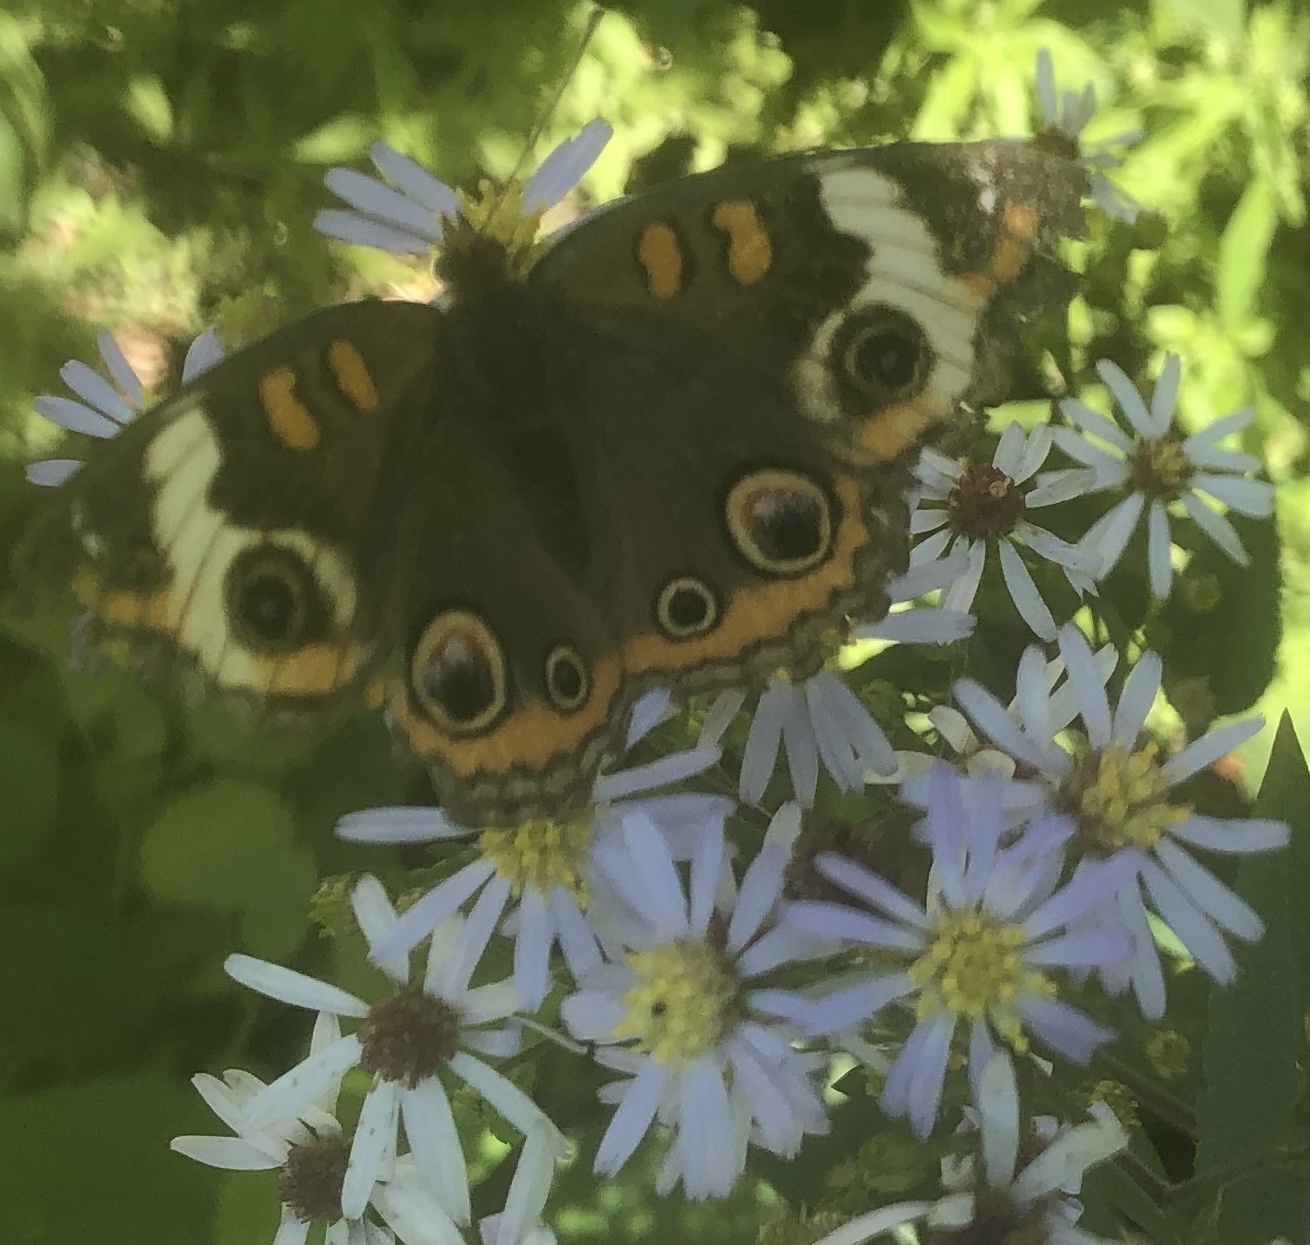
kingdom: Animalia
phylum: Arthropoda
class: Insecta
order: Lepidoptera
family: Nymphalidae
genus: Junonia
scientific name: Junonia coenia
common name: Common buckeye
